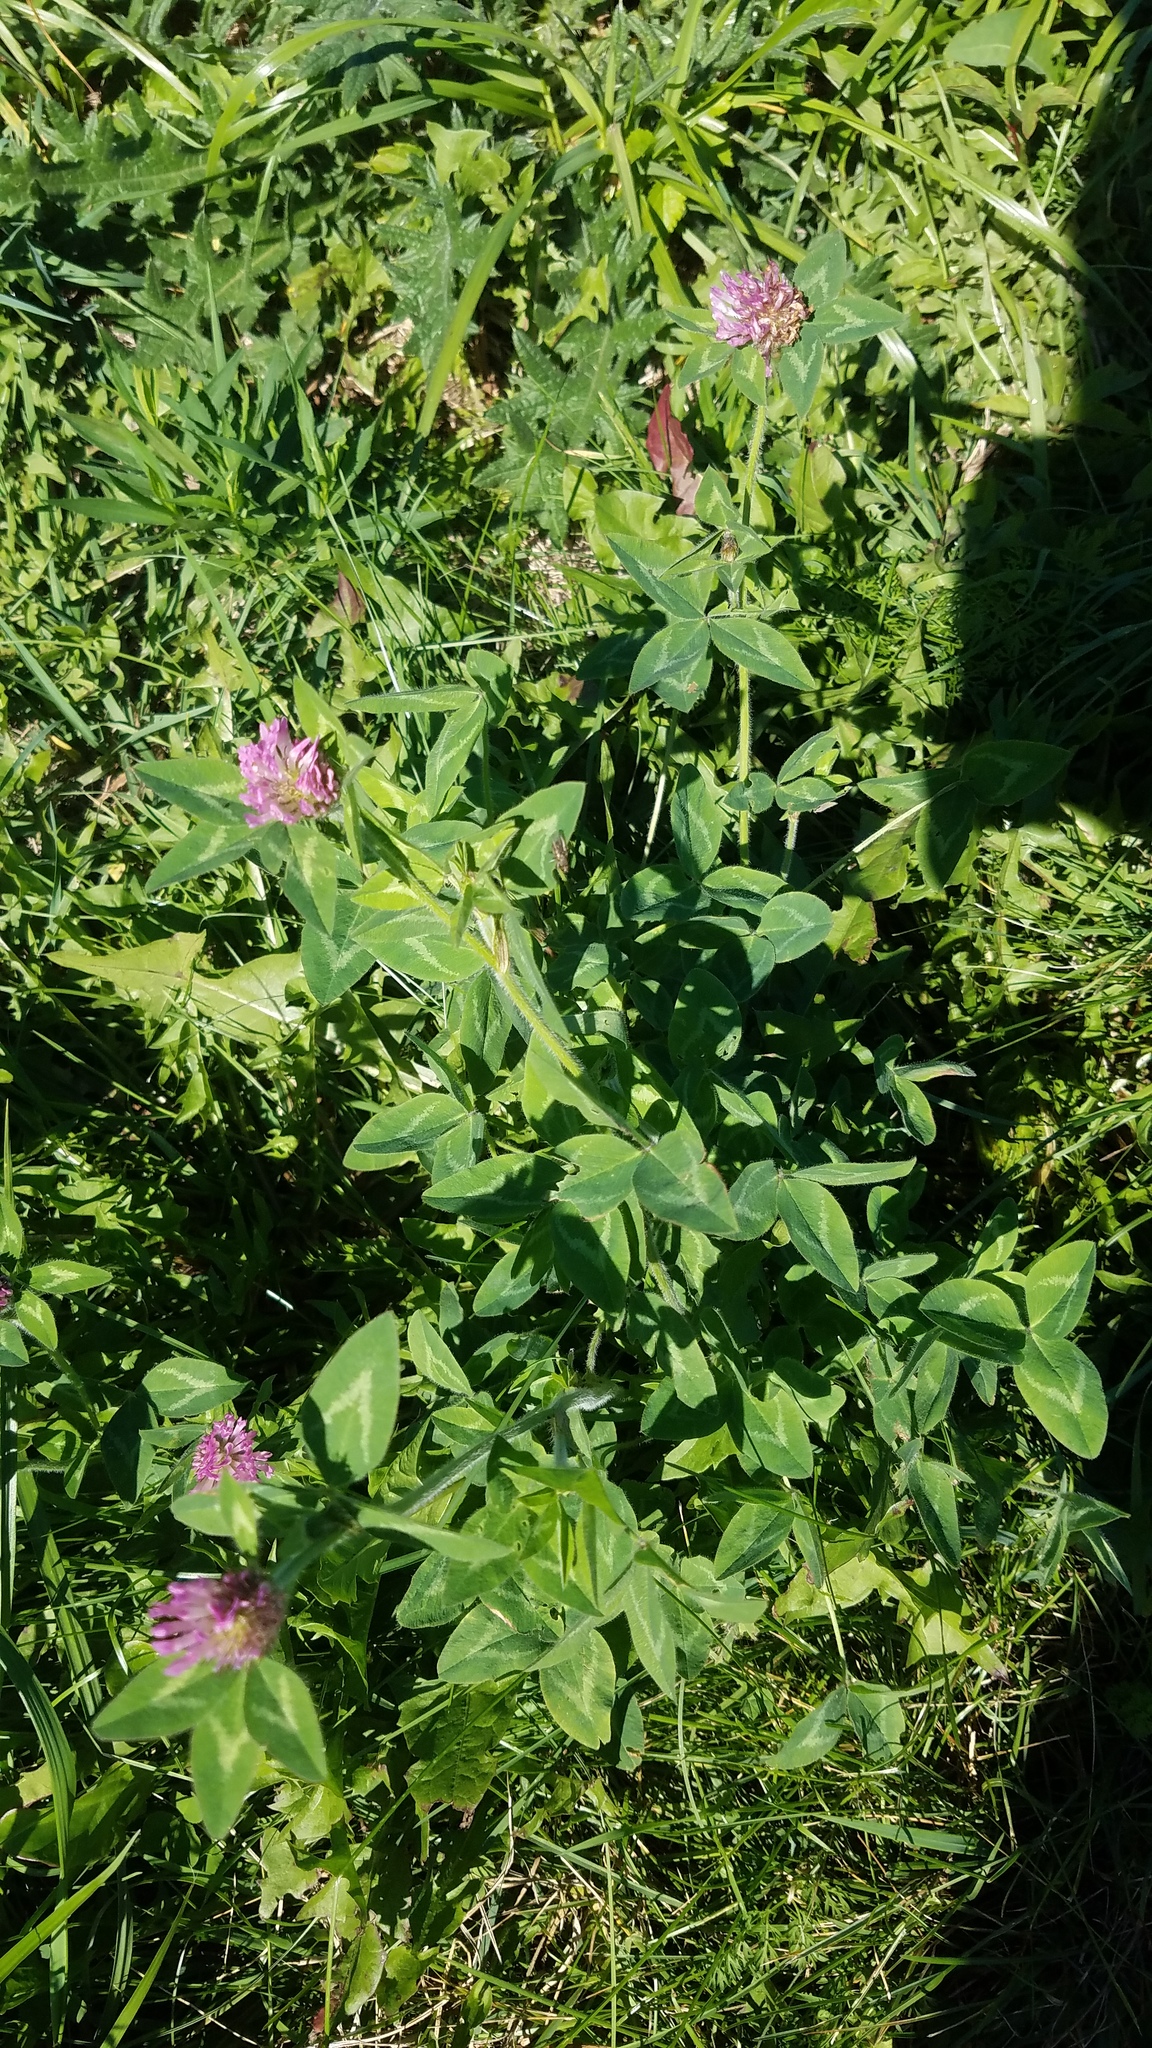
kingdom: Plantae
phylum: Tracheophyta
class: Magnoliopsida
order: Fabales
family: Fabaceae
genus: Trifolium
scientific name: Trifolium pratense
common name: Red clover
